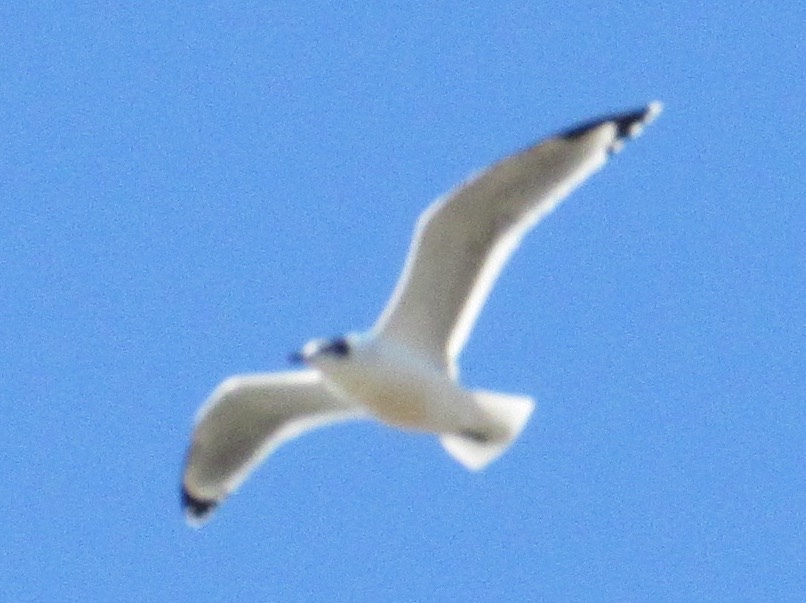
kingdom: Animalia
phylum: Chordata
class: Aves
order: Charadriiformes
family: Laridae
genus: Leucophaeus
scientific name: Leucophaeus pipixcan
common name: Franklin's gull
